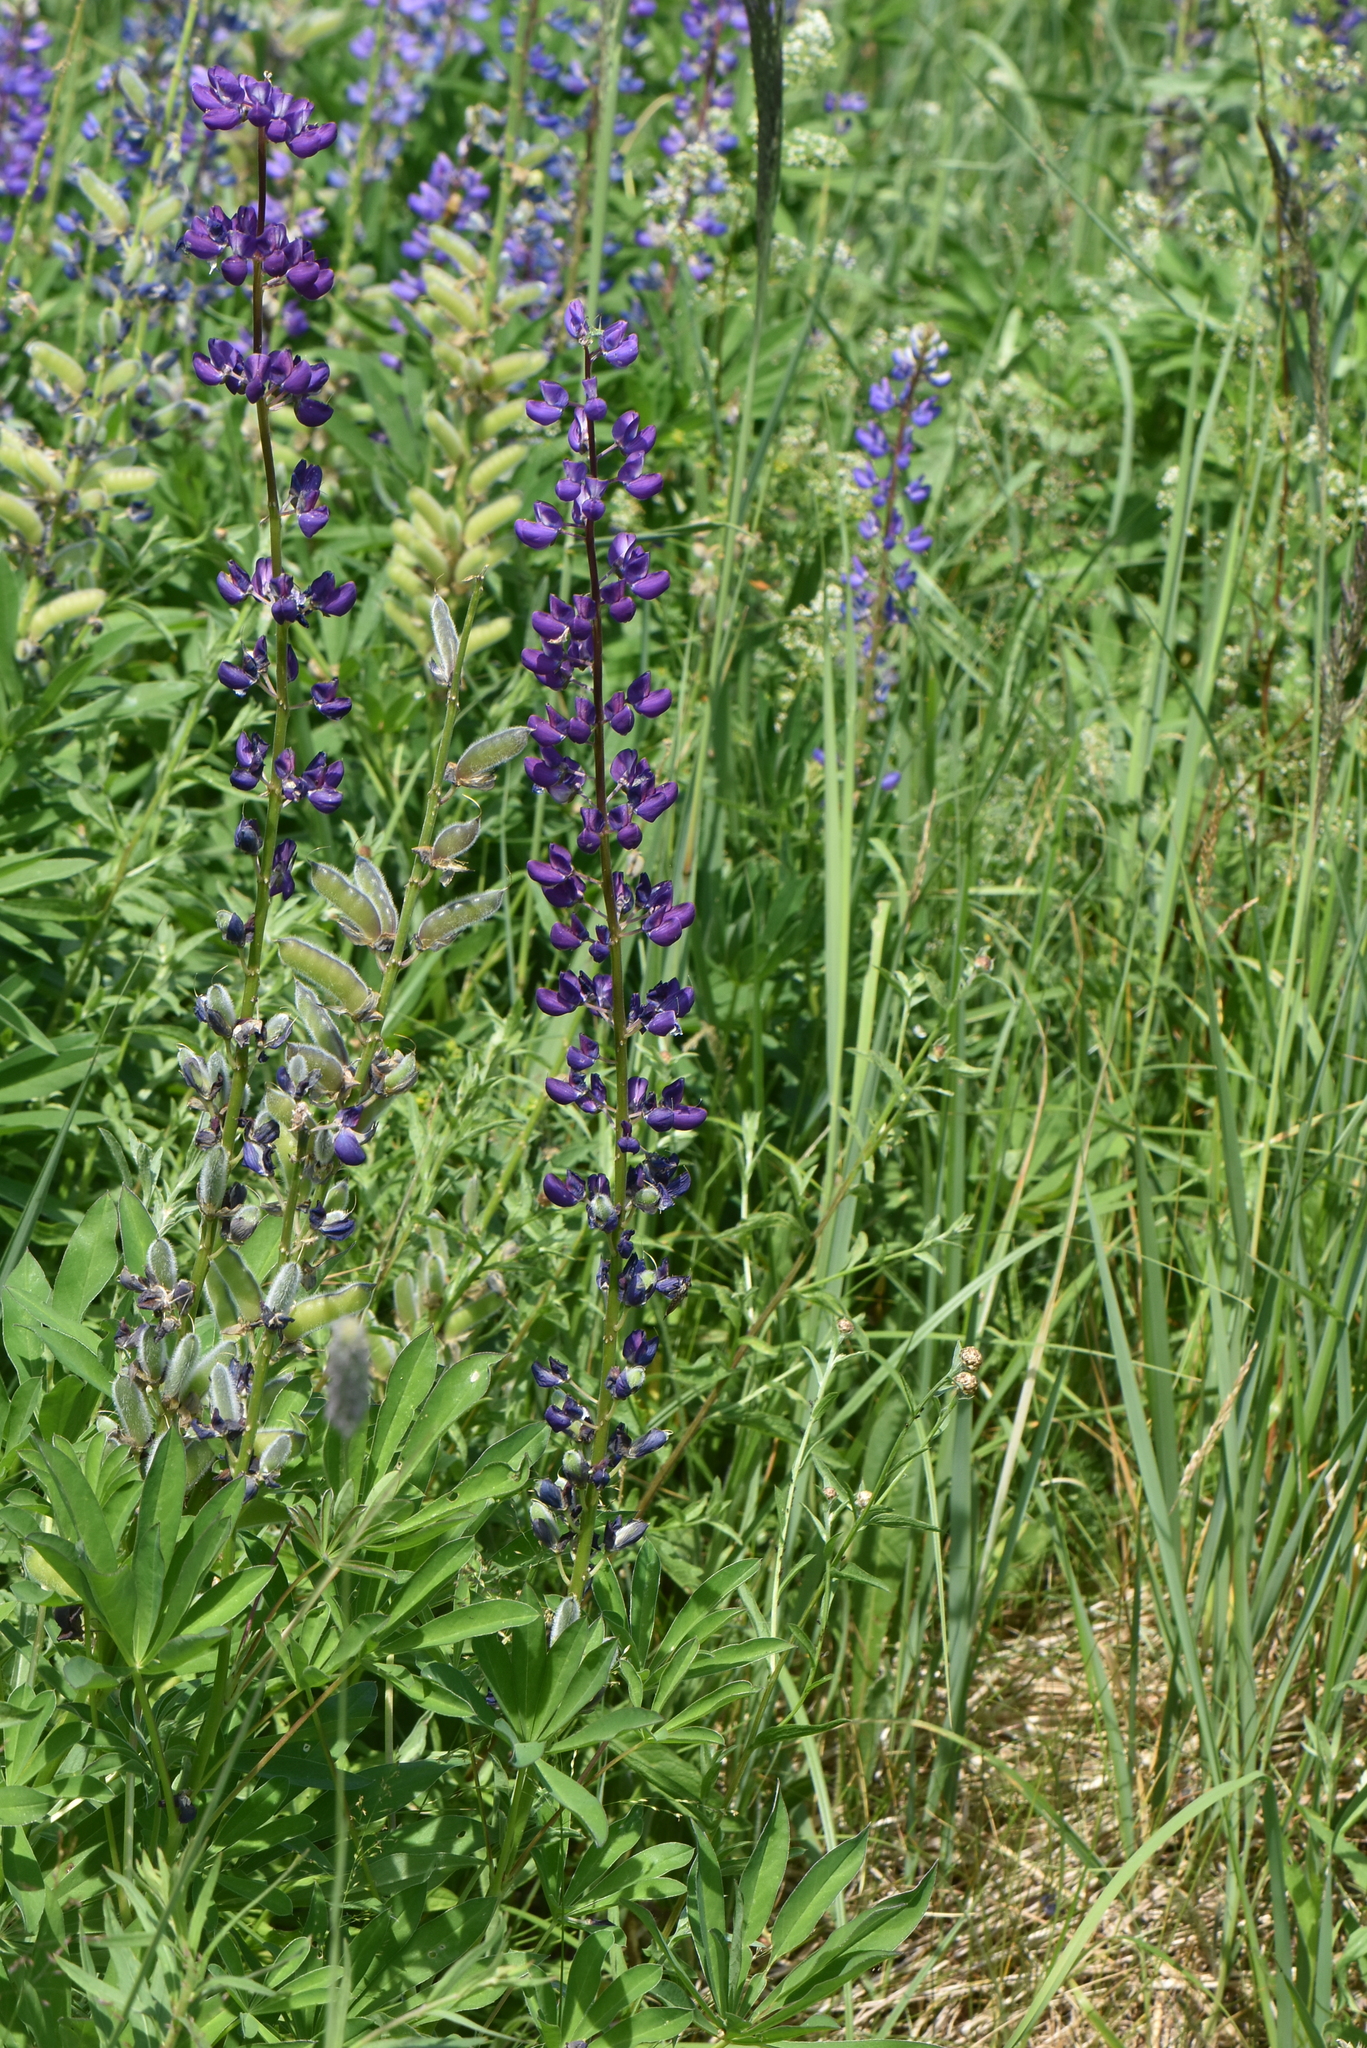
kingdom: Plantae
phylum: Tracheophyta
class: Magnoliopsida
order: Fabales
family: Fabaceae
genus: Lupinus
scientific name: Lupinus polyphyllus
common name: Garden lupin
